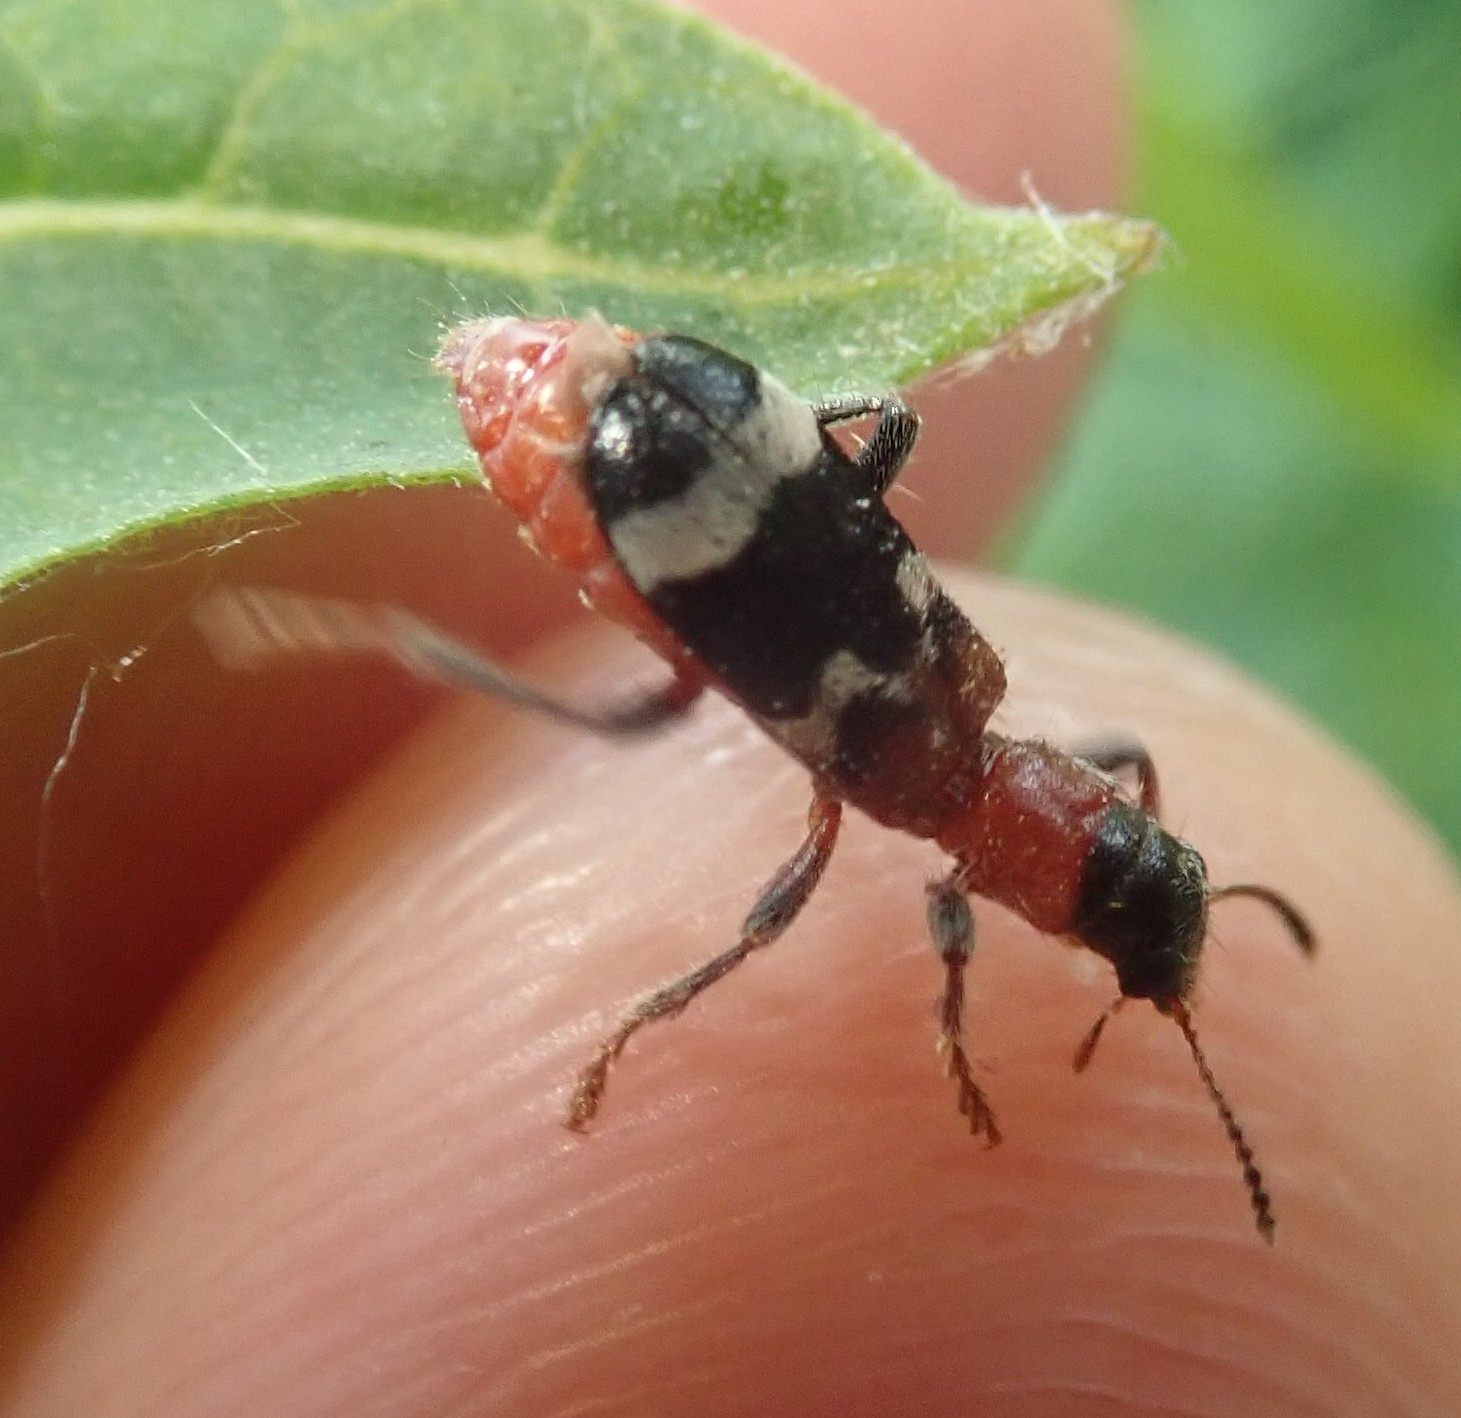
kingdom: Animalia
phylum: Arthropoda
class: Insecta
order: Coleoptera
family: Cleridae
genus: Thanasimus
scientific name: Thanasimus formicarius
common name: Ant beetle
